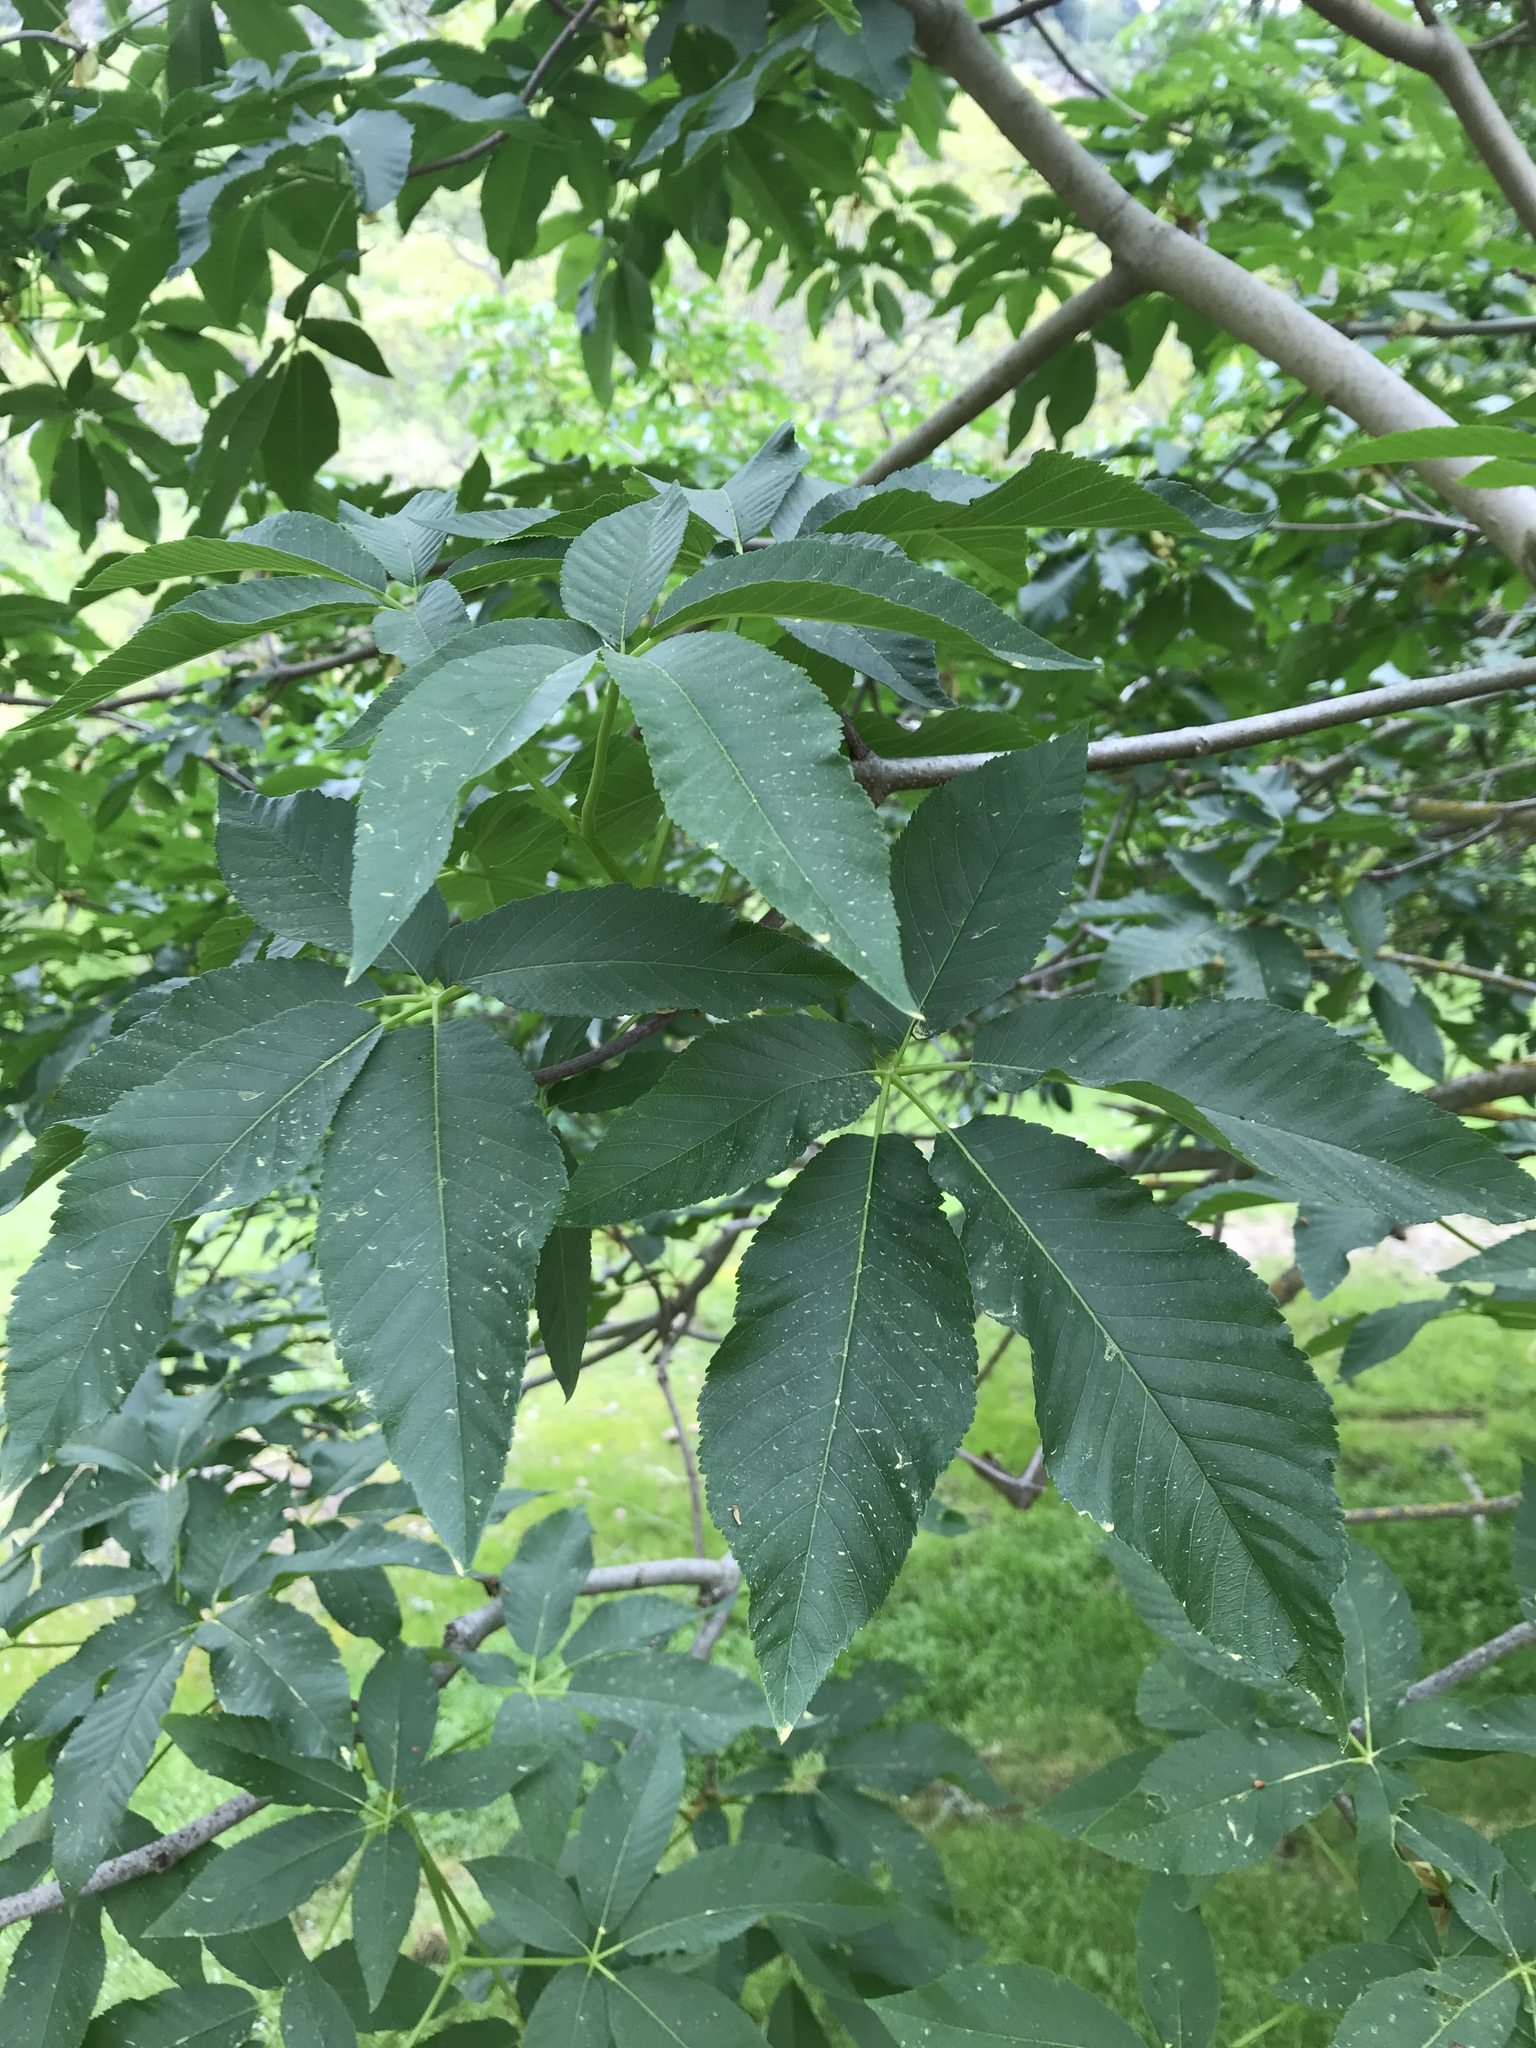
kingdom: Plantae
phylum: Tracheophyta
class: Magnoliopsida
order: Sapindales
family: Sapindaceae
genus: Aesculus
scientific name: Aesculus californica
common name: California buckeye
